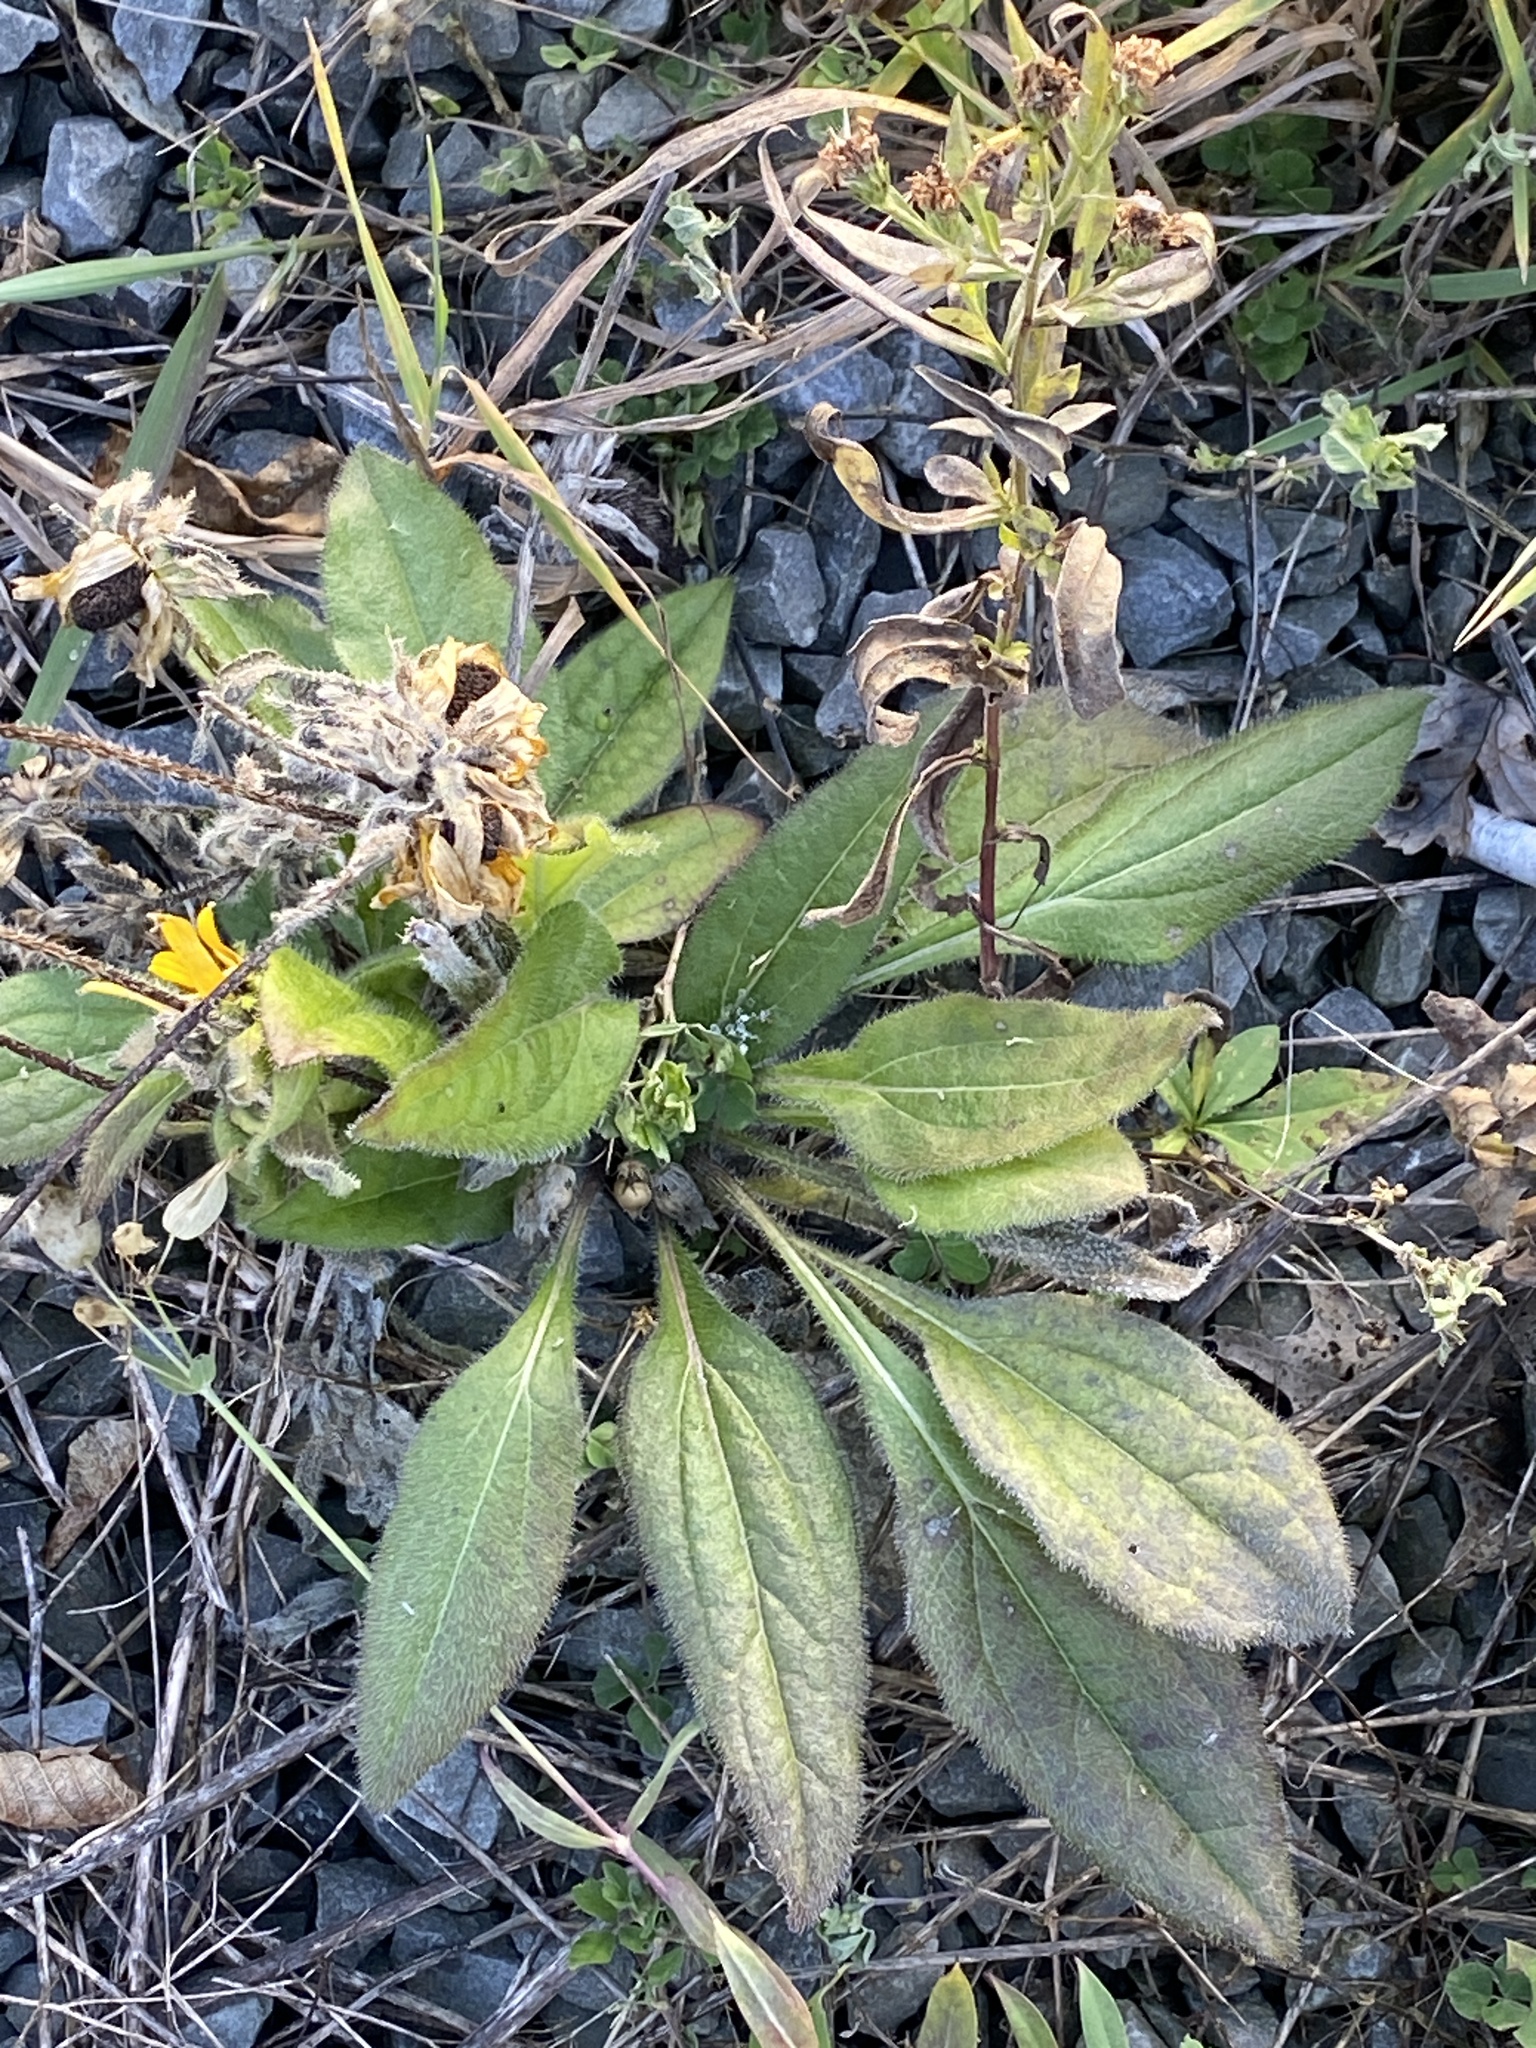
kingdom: Plantae
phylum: Tracheophyta
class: Magnoliopsida
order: Asterales
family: Asteraceae
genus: Rudbeckia
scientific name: Rudbeckia hirta
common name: Black-eyed-susan
